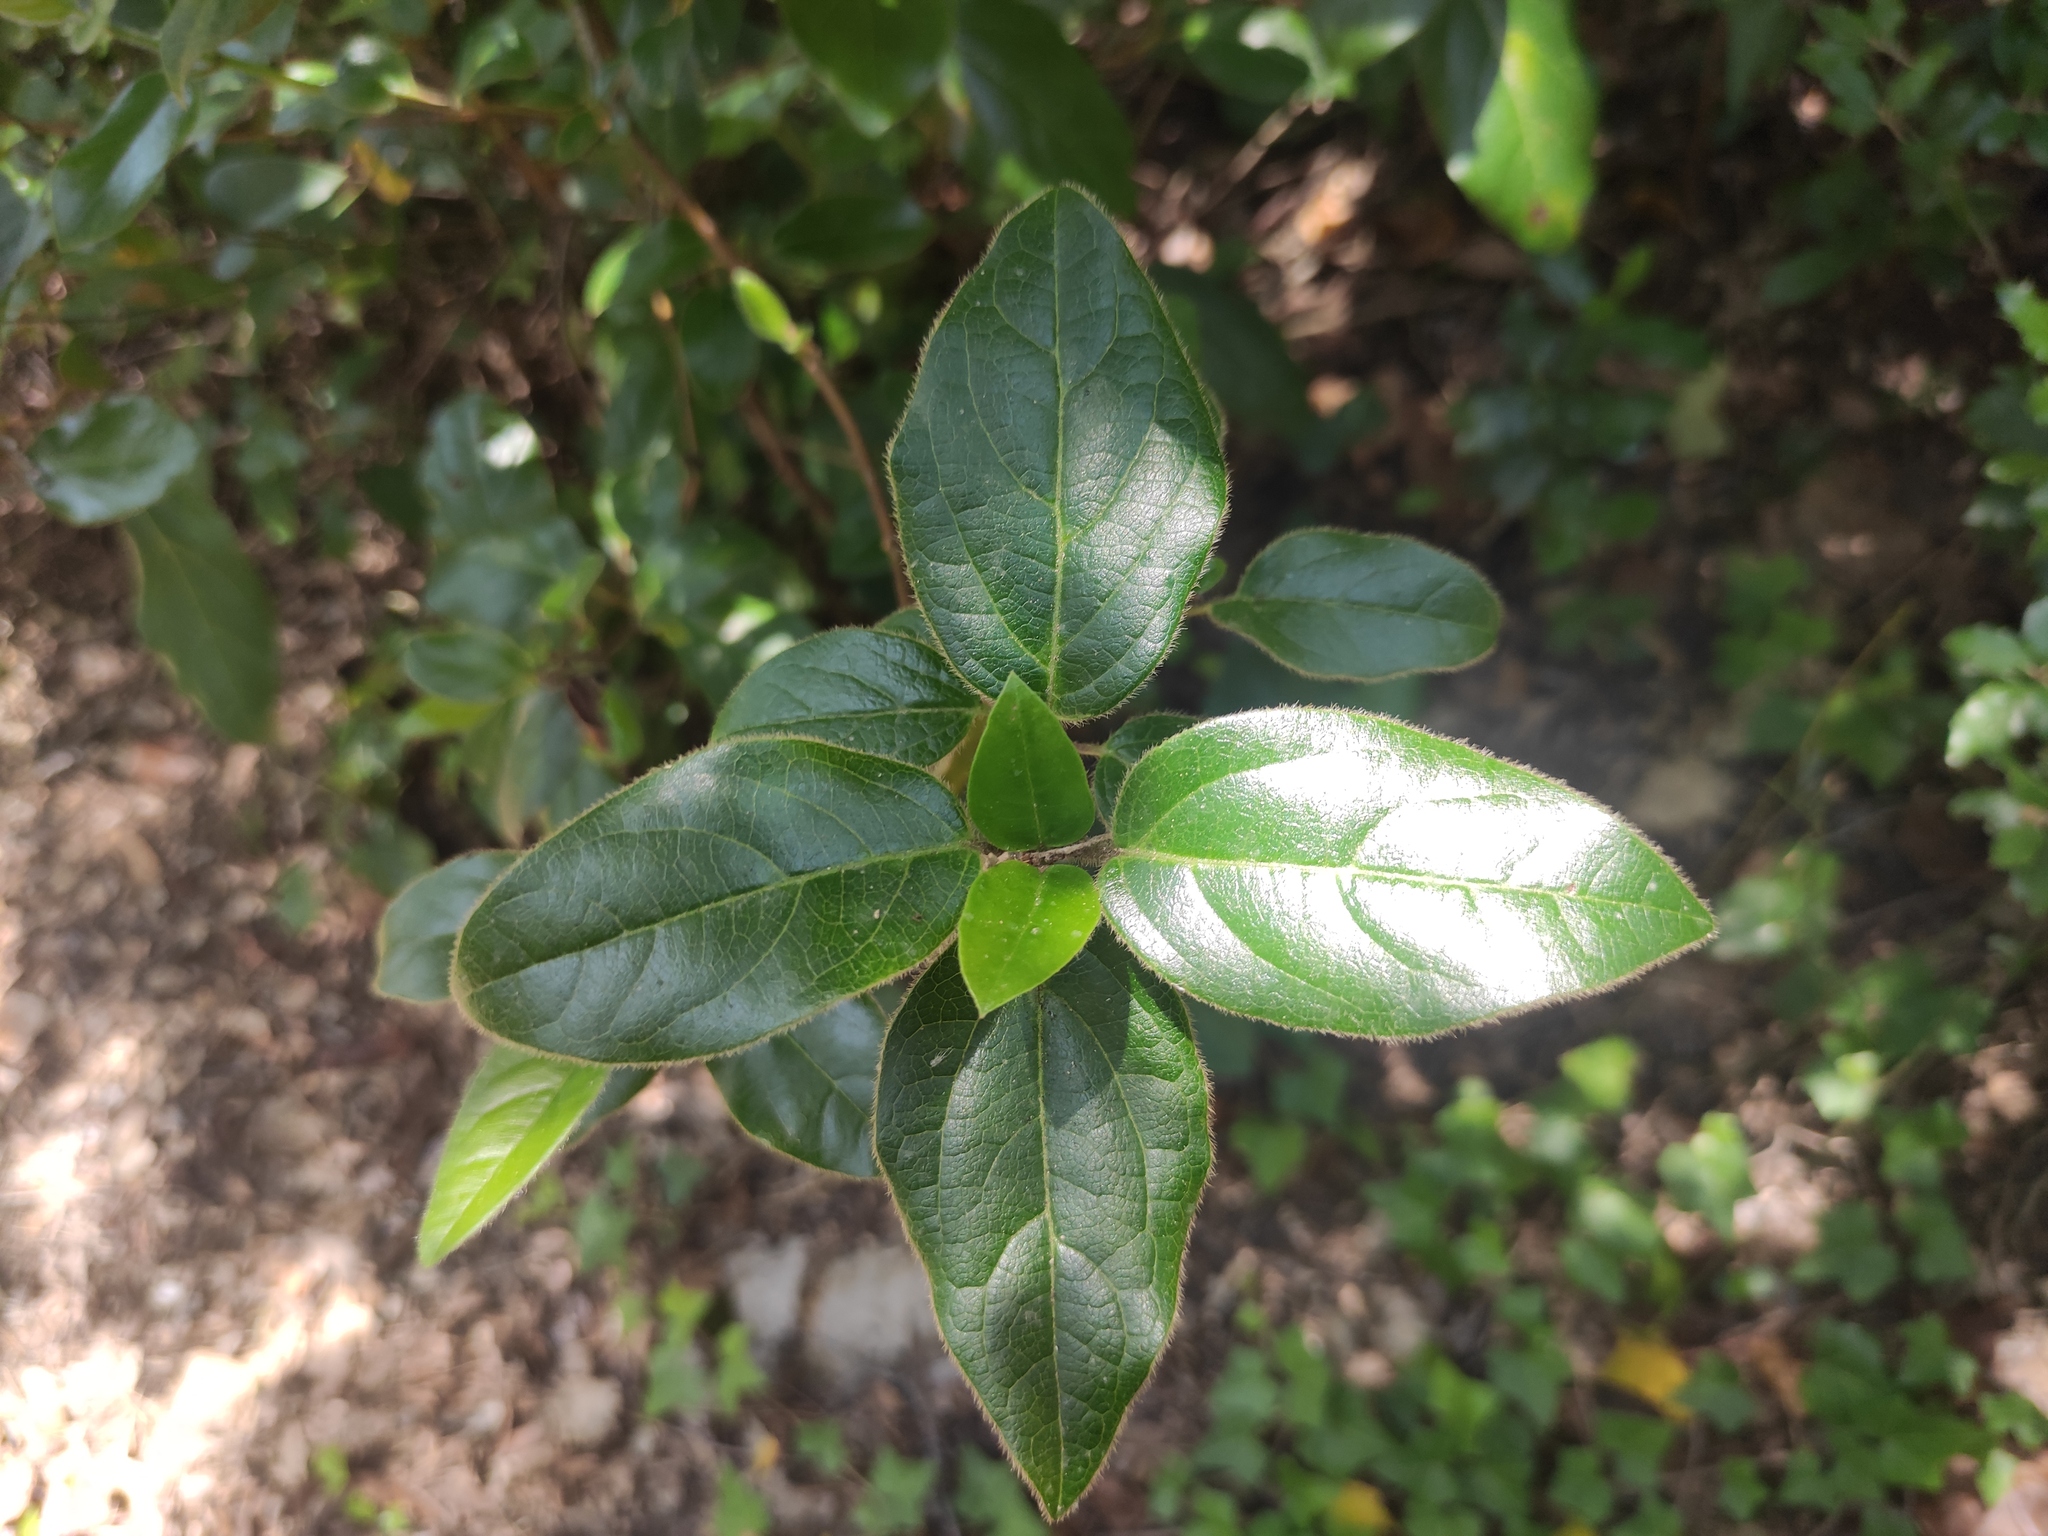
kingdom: Plantae
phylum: Tracheophyta
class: Magnoliopsida
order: Dipsacales
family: Viburnaceae
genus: Viburnum
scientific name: Viburnum tinus
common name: Laurustinus
